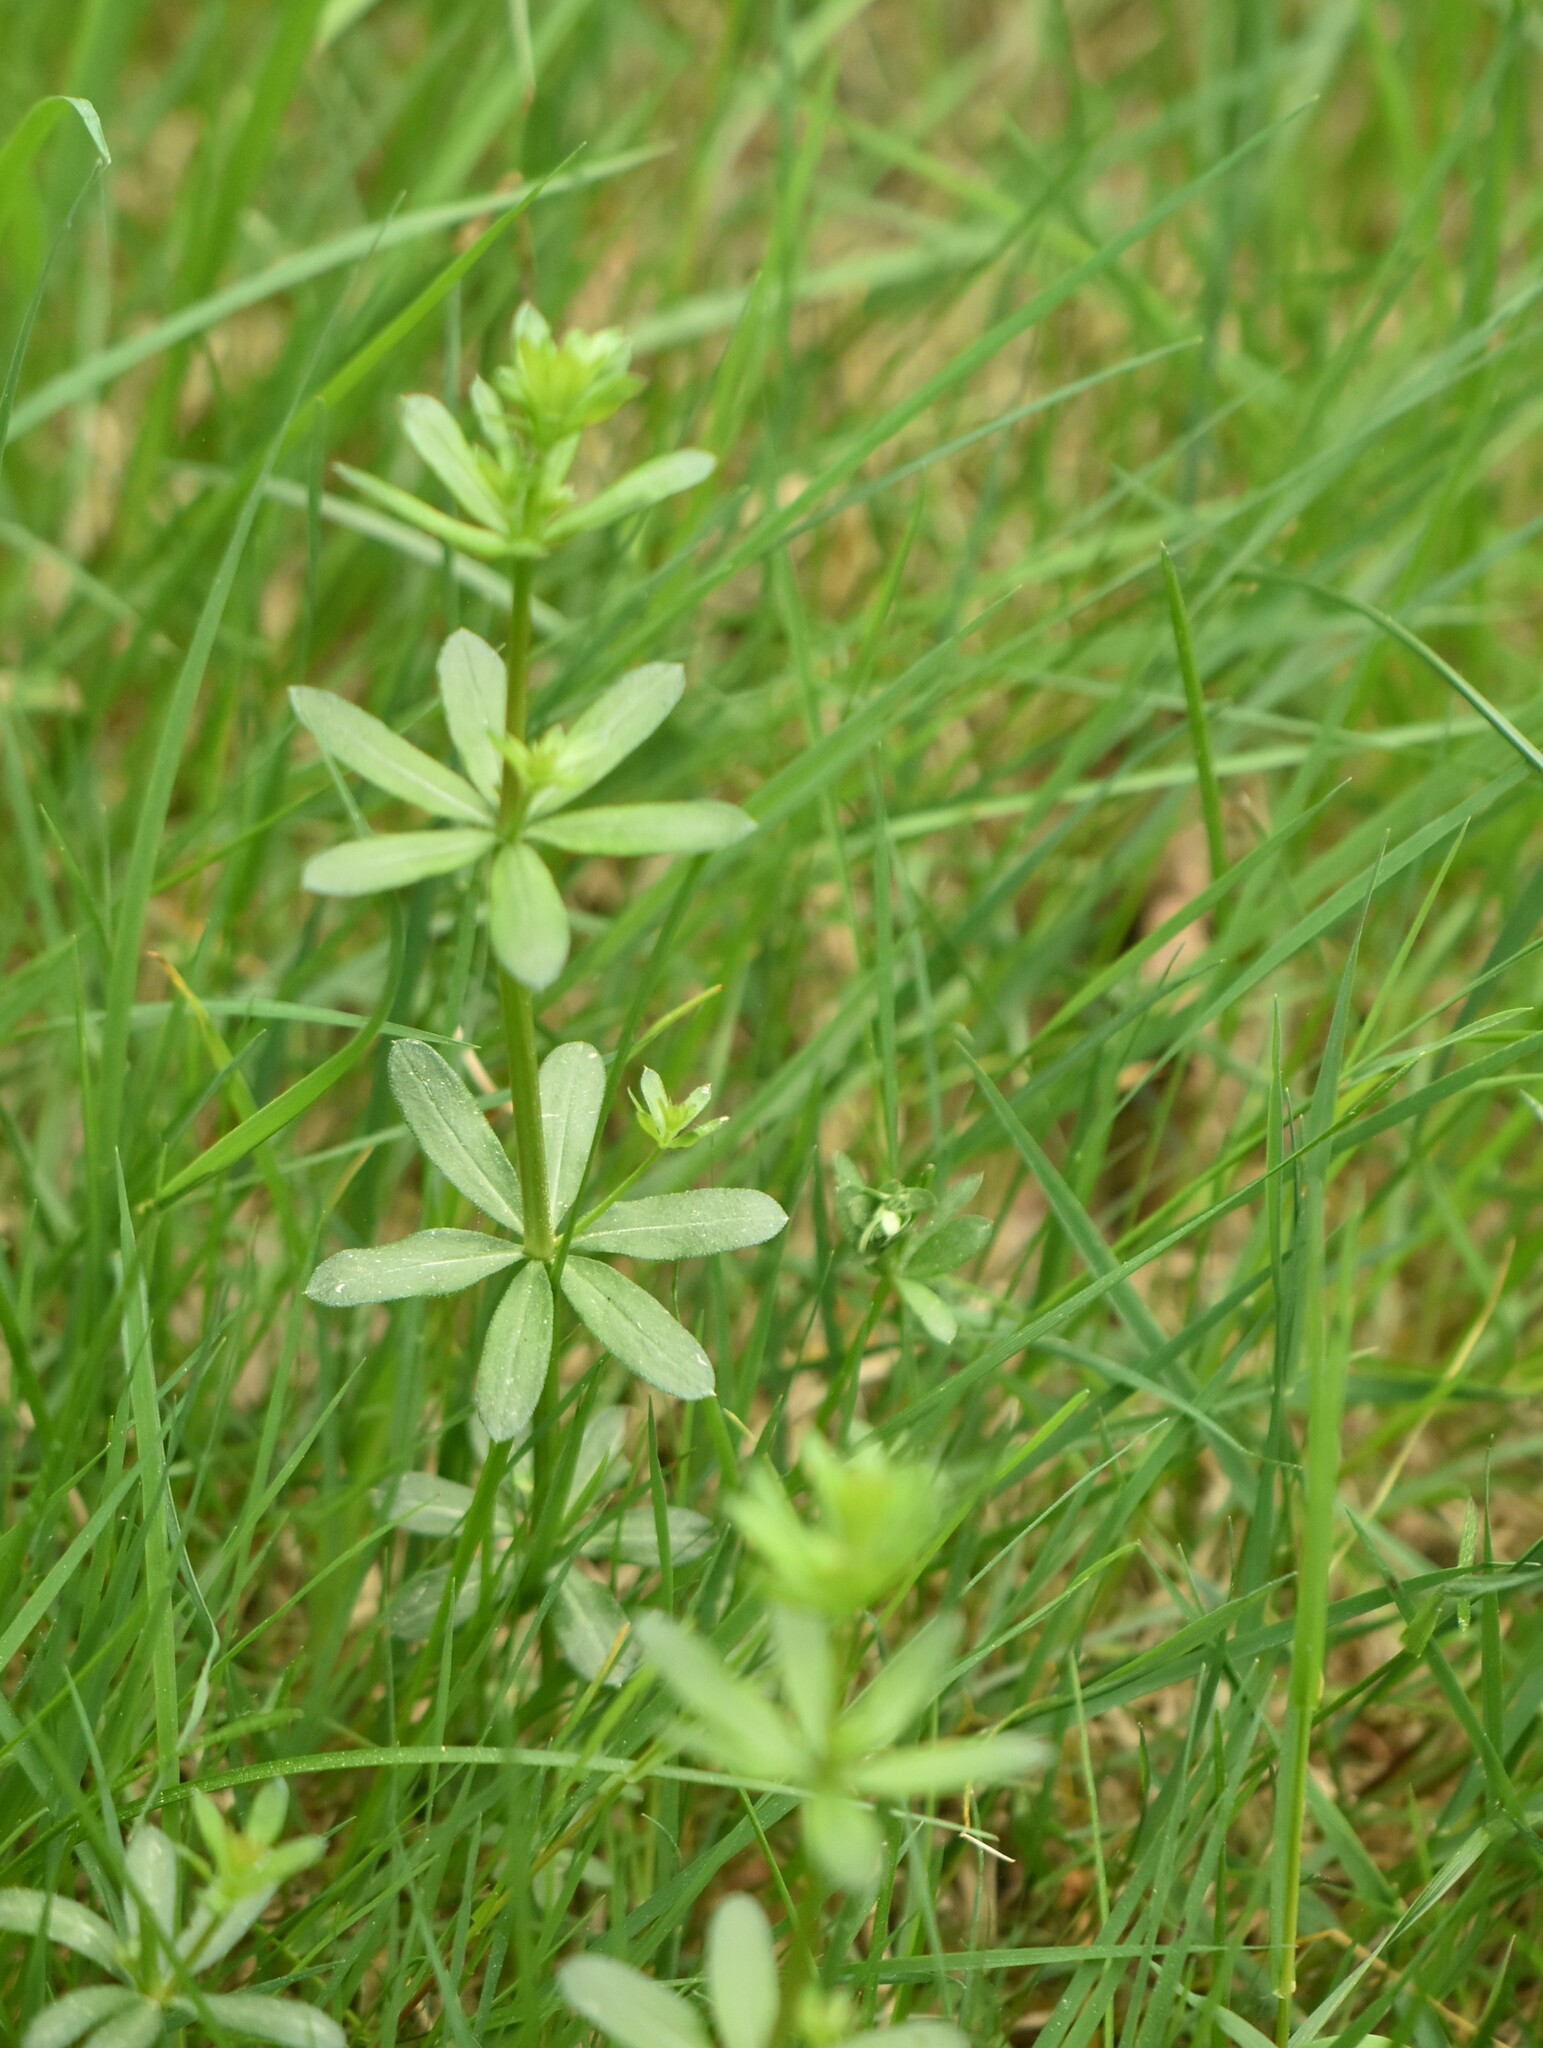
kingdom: Plantae
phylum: Tracheophyta
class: Magnoliopsida
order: Gentianales
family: Rubiaceae
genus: Galium
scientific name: Galium mollugo
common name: Hedge bedstraw
